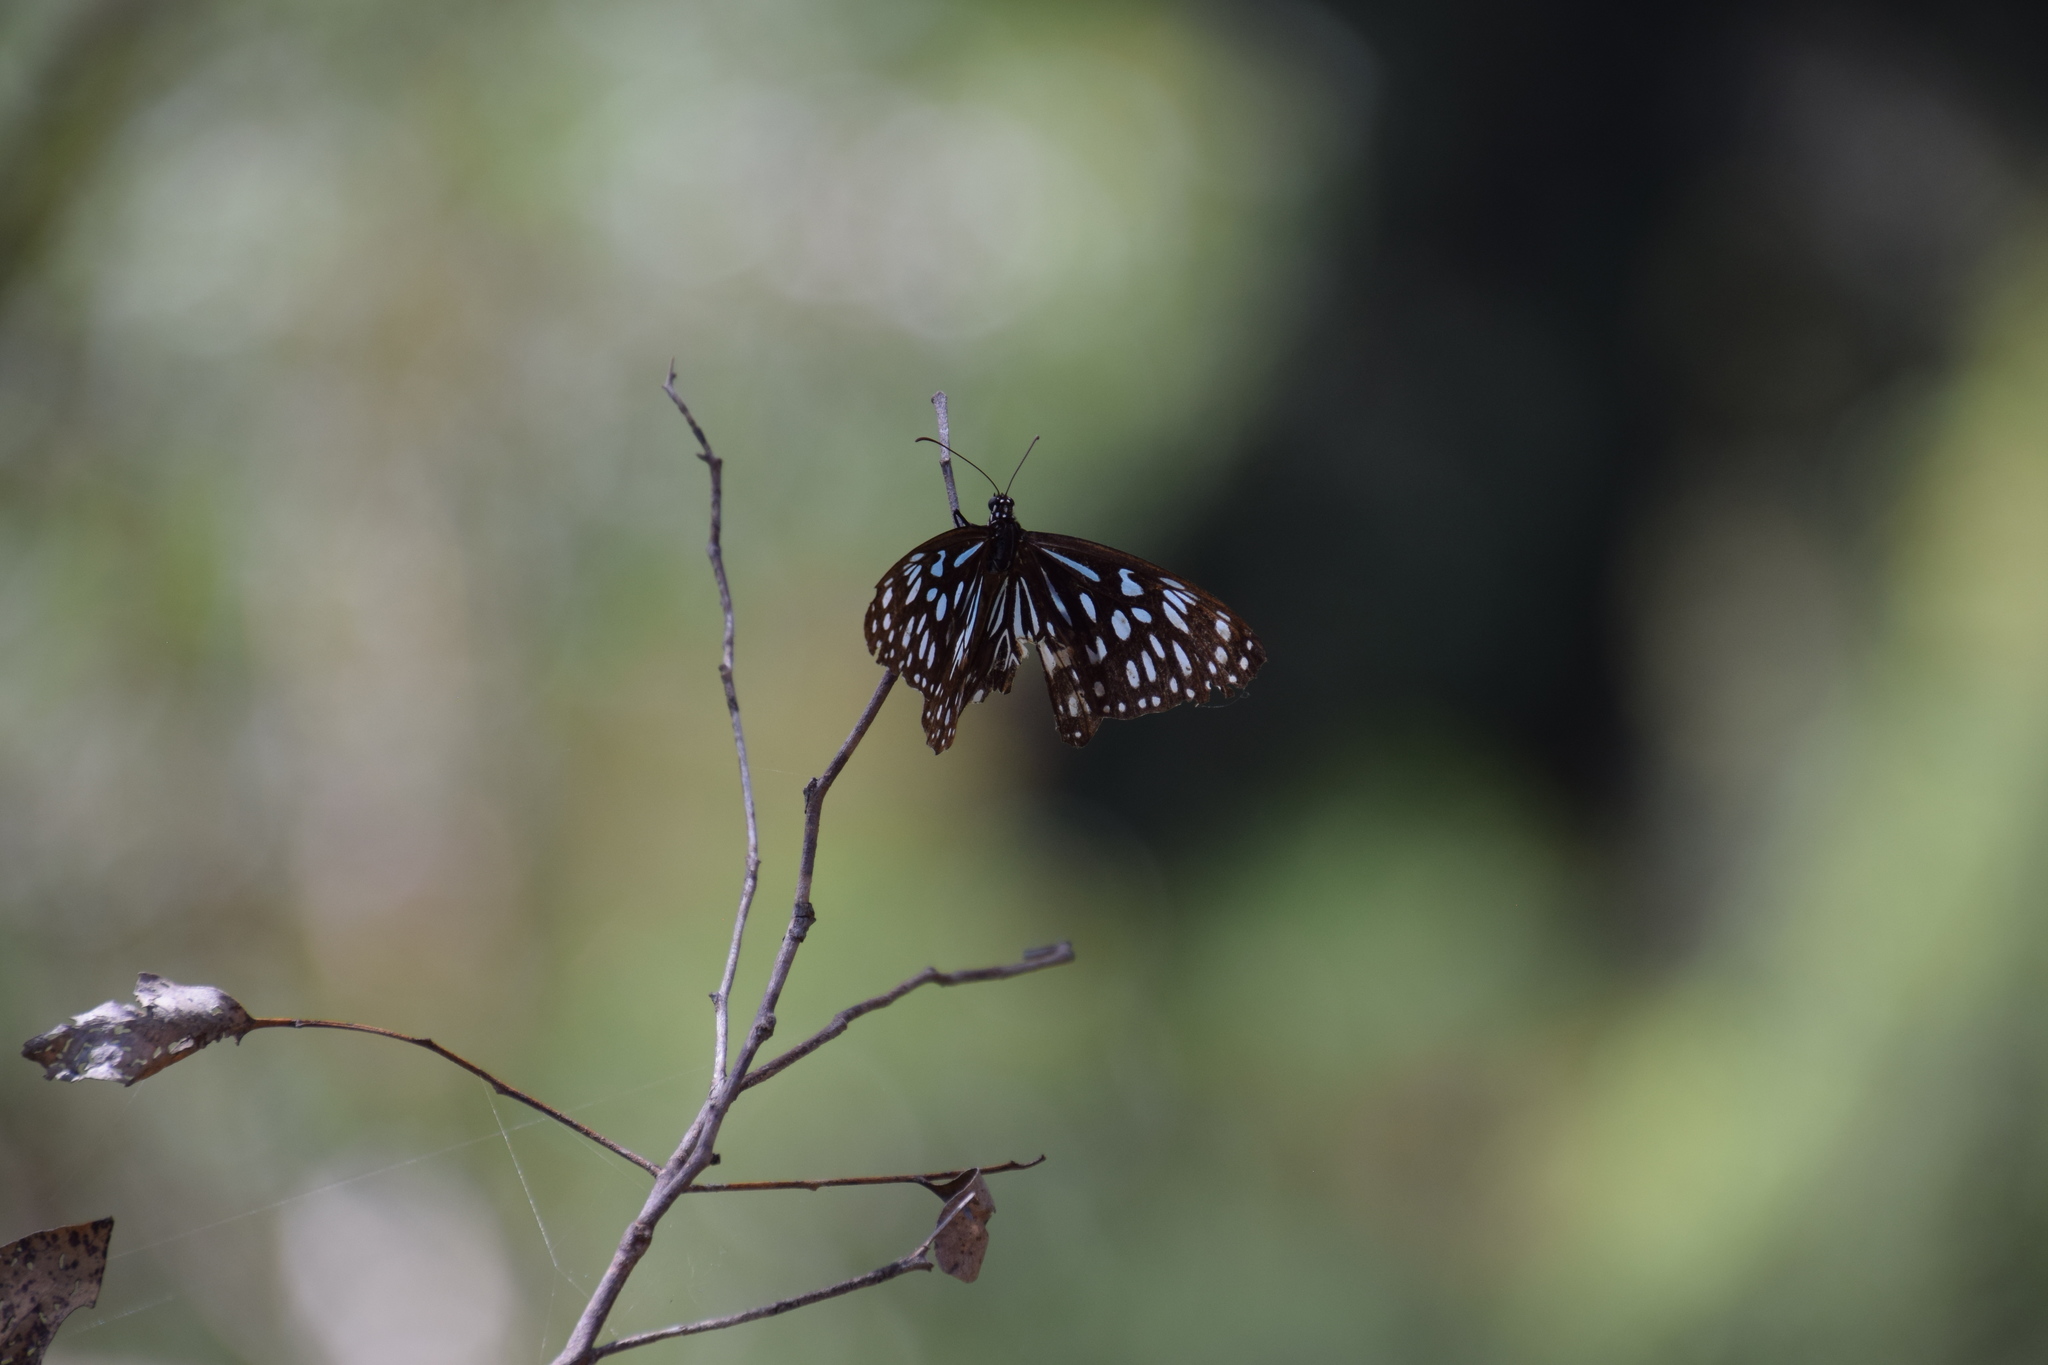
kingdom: Animalia
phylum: Arthropoda
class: Insecta
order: Lepidoptera
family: Nymphalidae
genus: Tirumala
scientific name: Tirumala hamata
